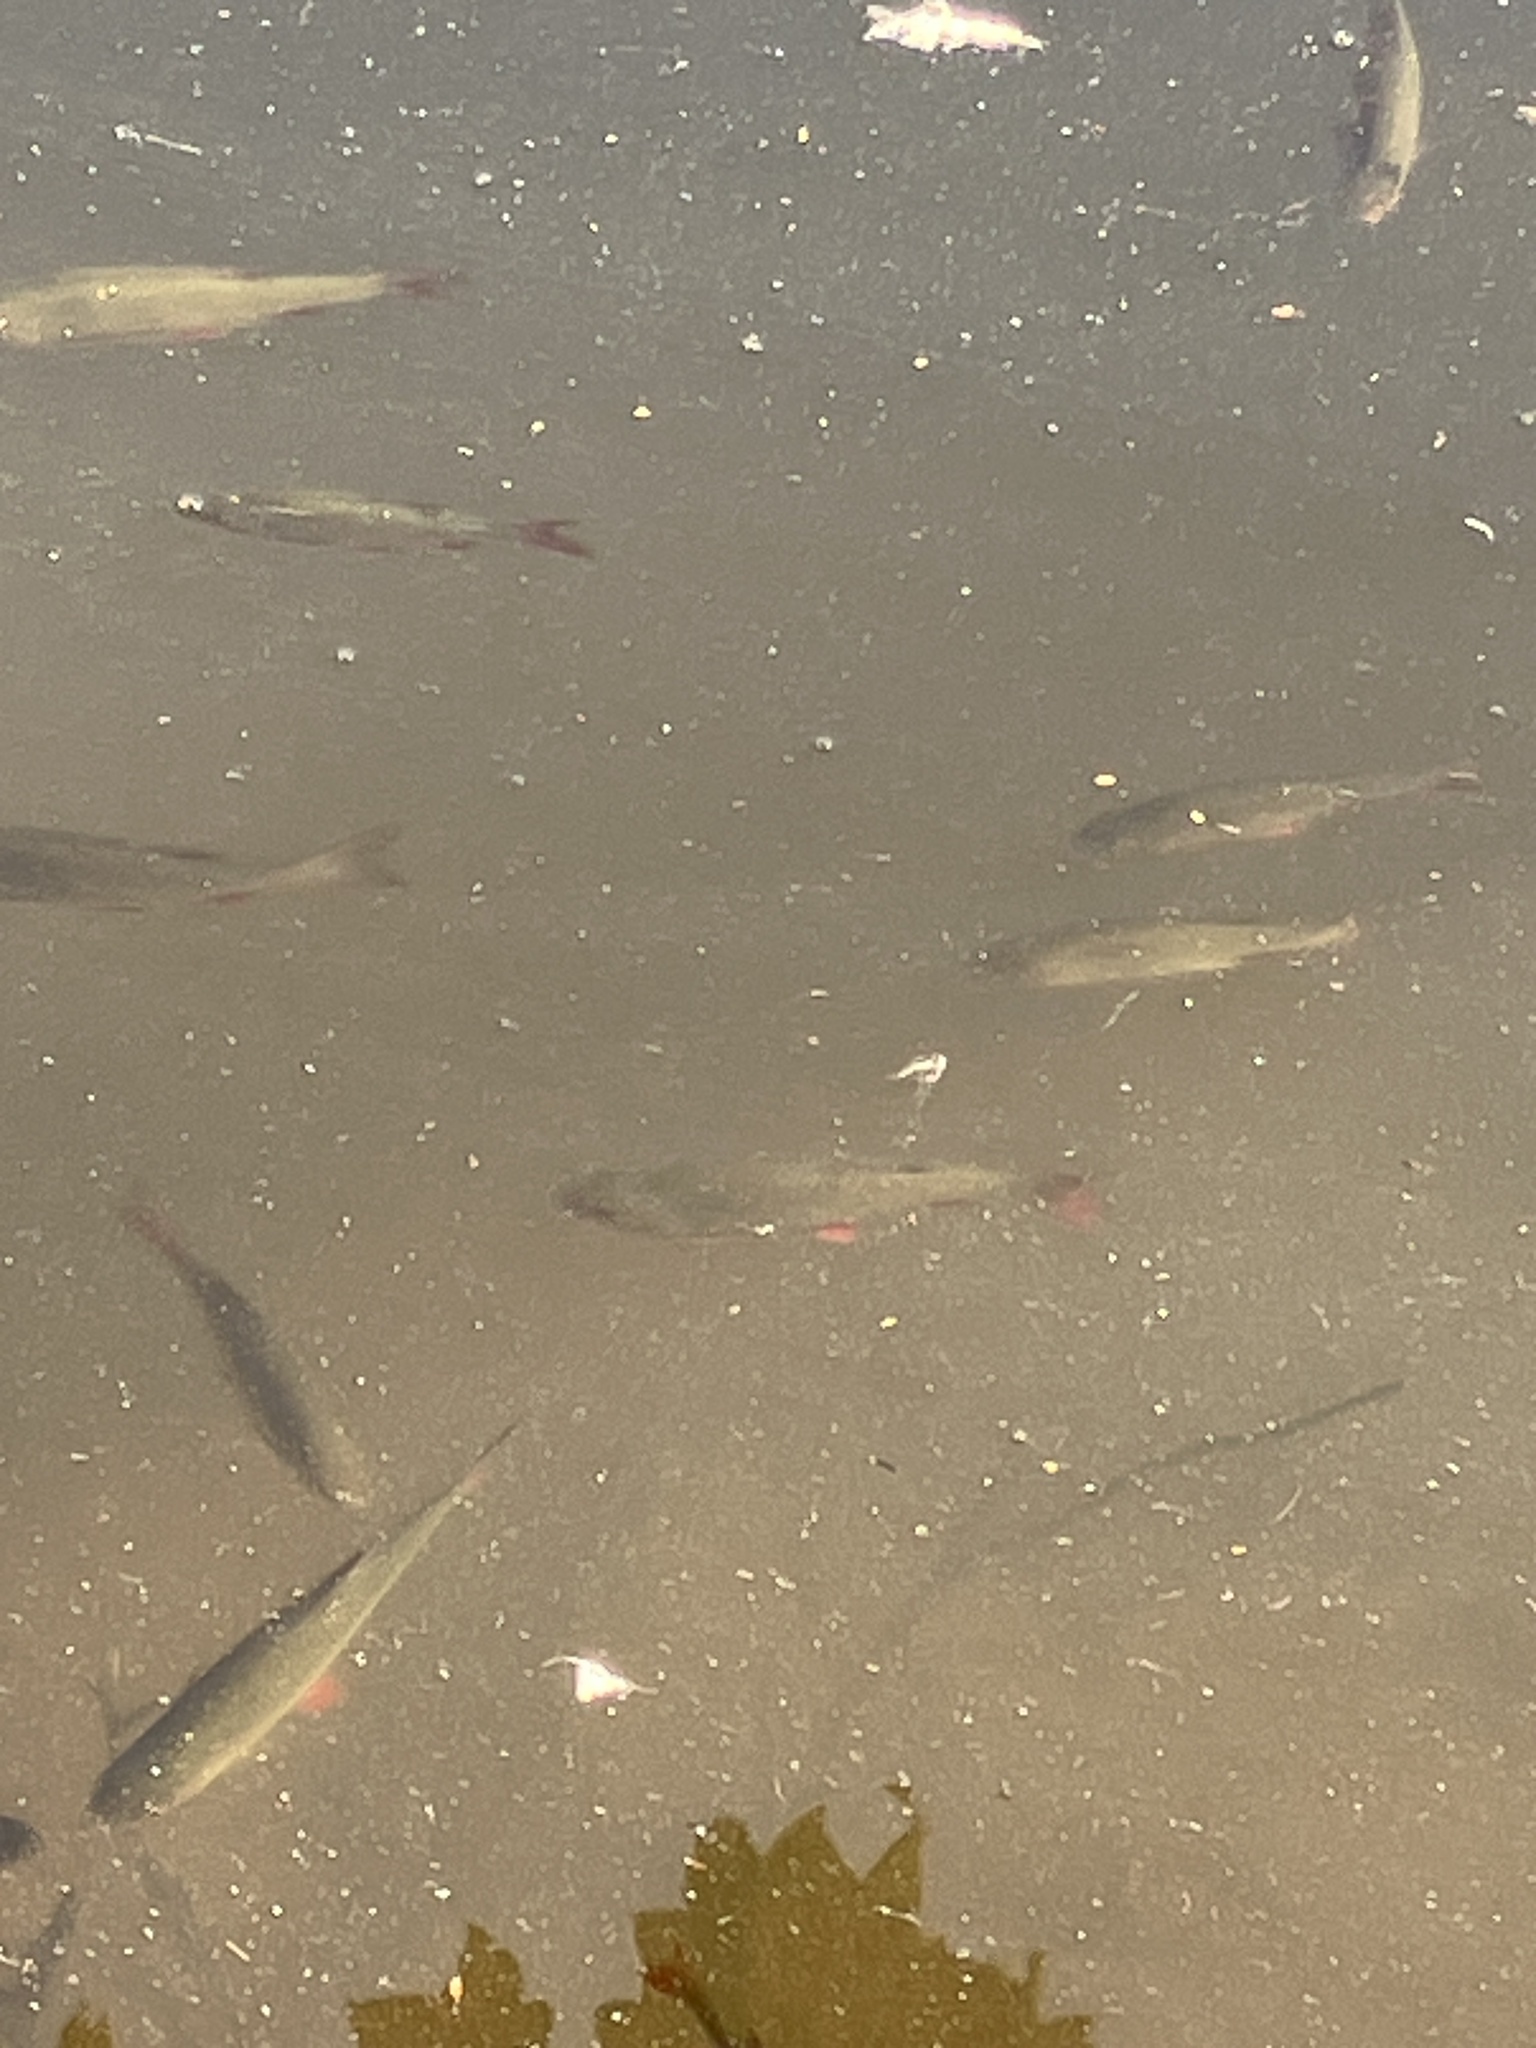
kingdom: Animalia
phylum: Chordata
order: Cypriniformes
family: Cyprinidae
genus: Scardinius
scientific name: Scardinius erythrophthalmus
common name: Rudd
